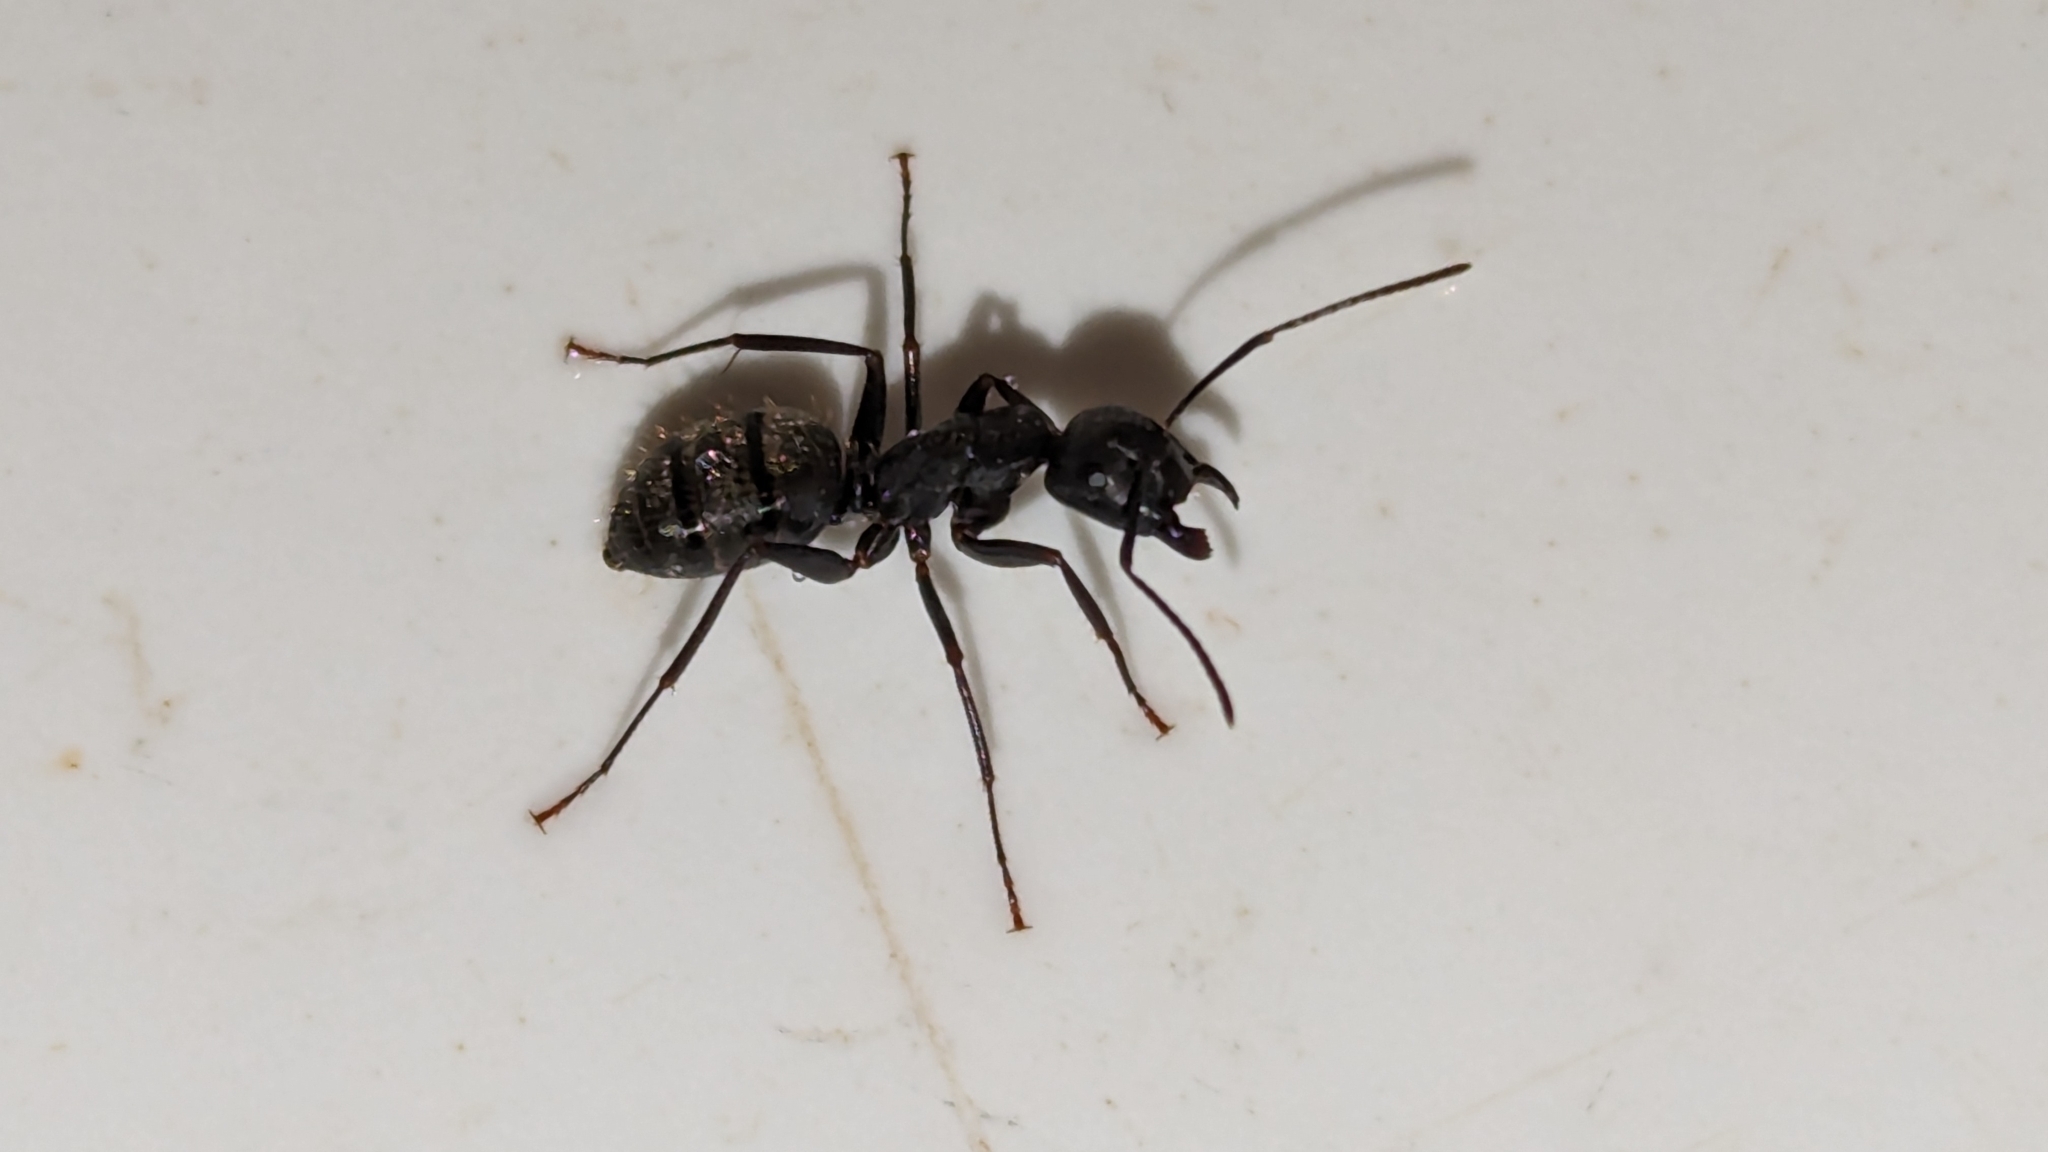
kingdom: Animalia
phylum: Arthropoda
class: Insecta
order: Hymenoptera
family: Formicidae
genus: Camponotus
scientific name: Camponotus pennsylvanicus
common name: Black carpenter ant
